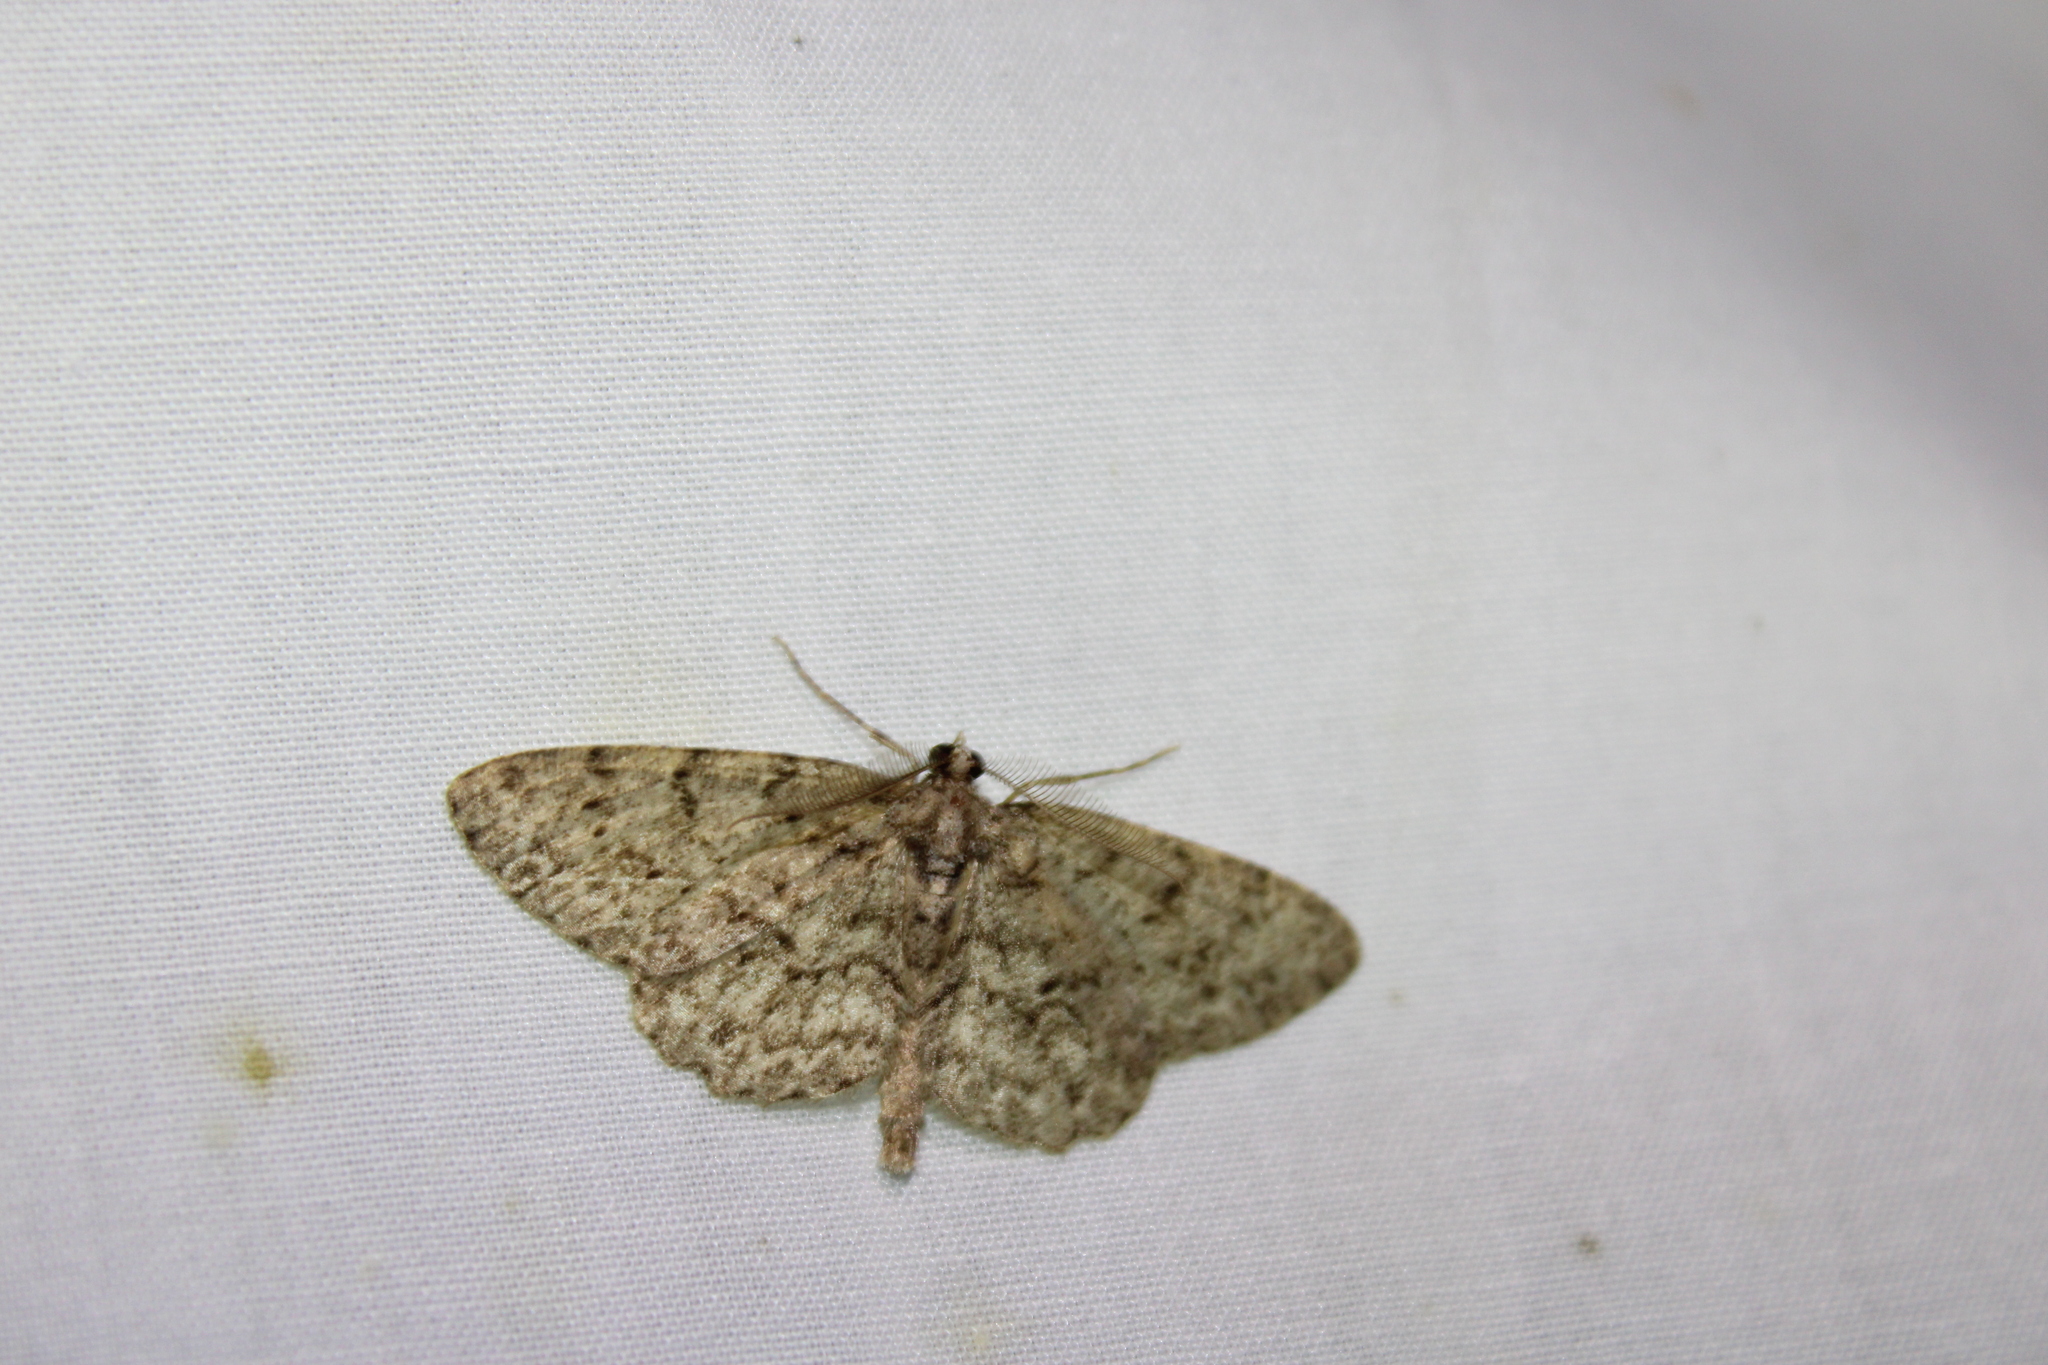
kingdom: Animalia
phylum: Arthropoda
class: Insecta
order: Lepidoptera
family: Geometridae
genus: Protoboarmia
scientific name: Protoboarmia porcelaria
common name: Porcelain gray
